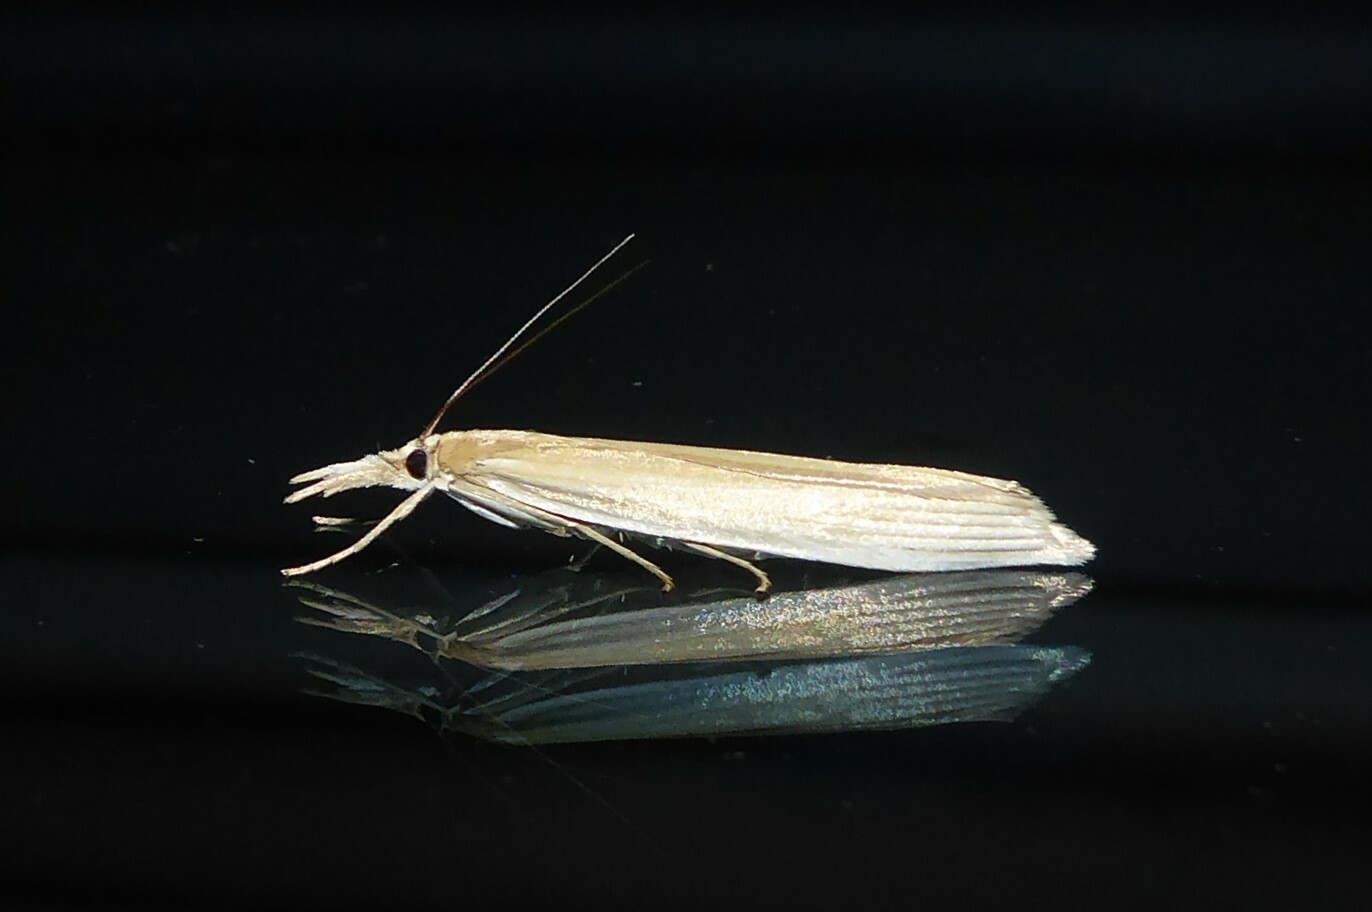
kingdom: Animalia
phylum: Arthropoda
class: Insecta
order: Lepidoptera
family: Crambidae
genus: Orocrambus
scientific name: Orocrambus angustipennis
